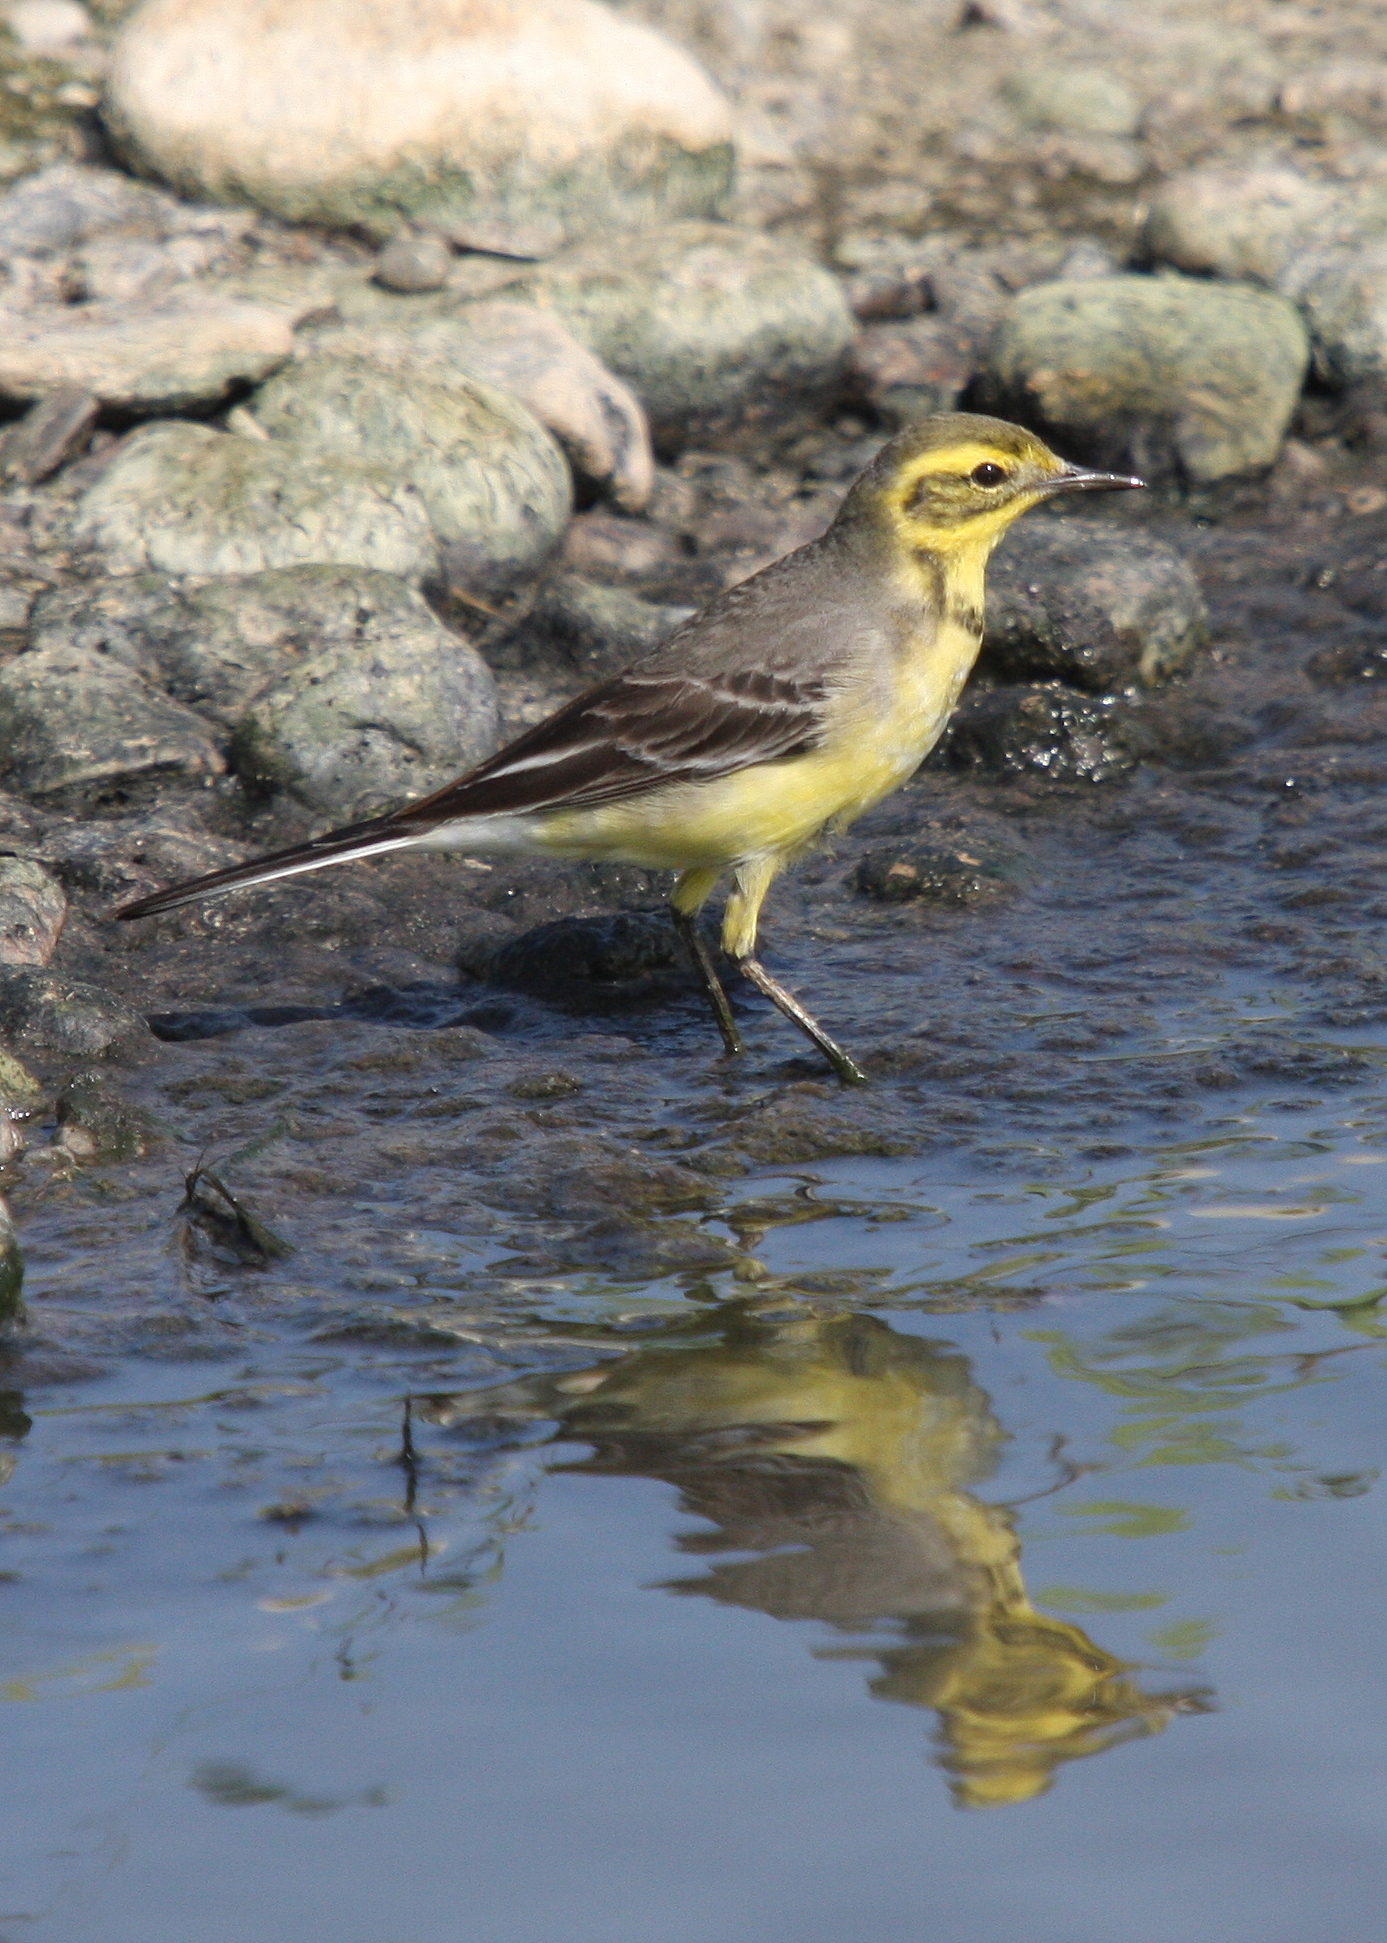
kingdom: Animalia
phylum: Chordata
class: Aves
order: Passeriformes
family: Motacillidae
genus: Motacilla
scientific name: Motacilla citreola
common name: Citrine wagtail
